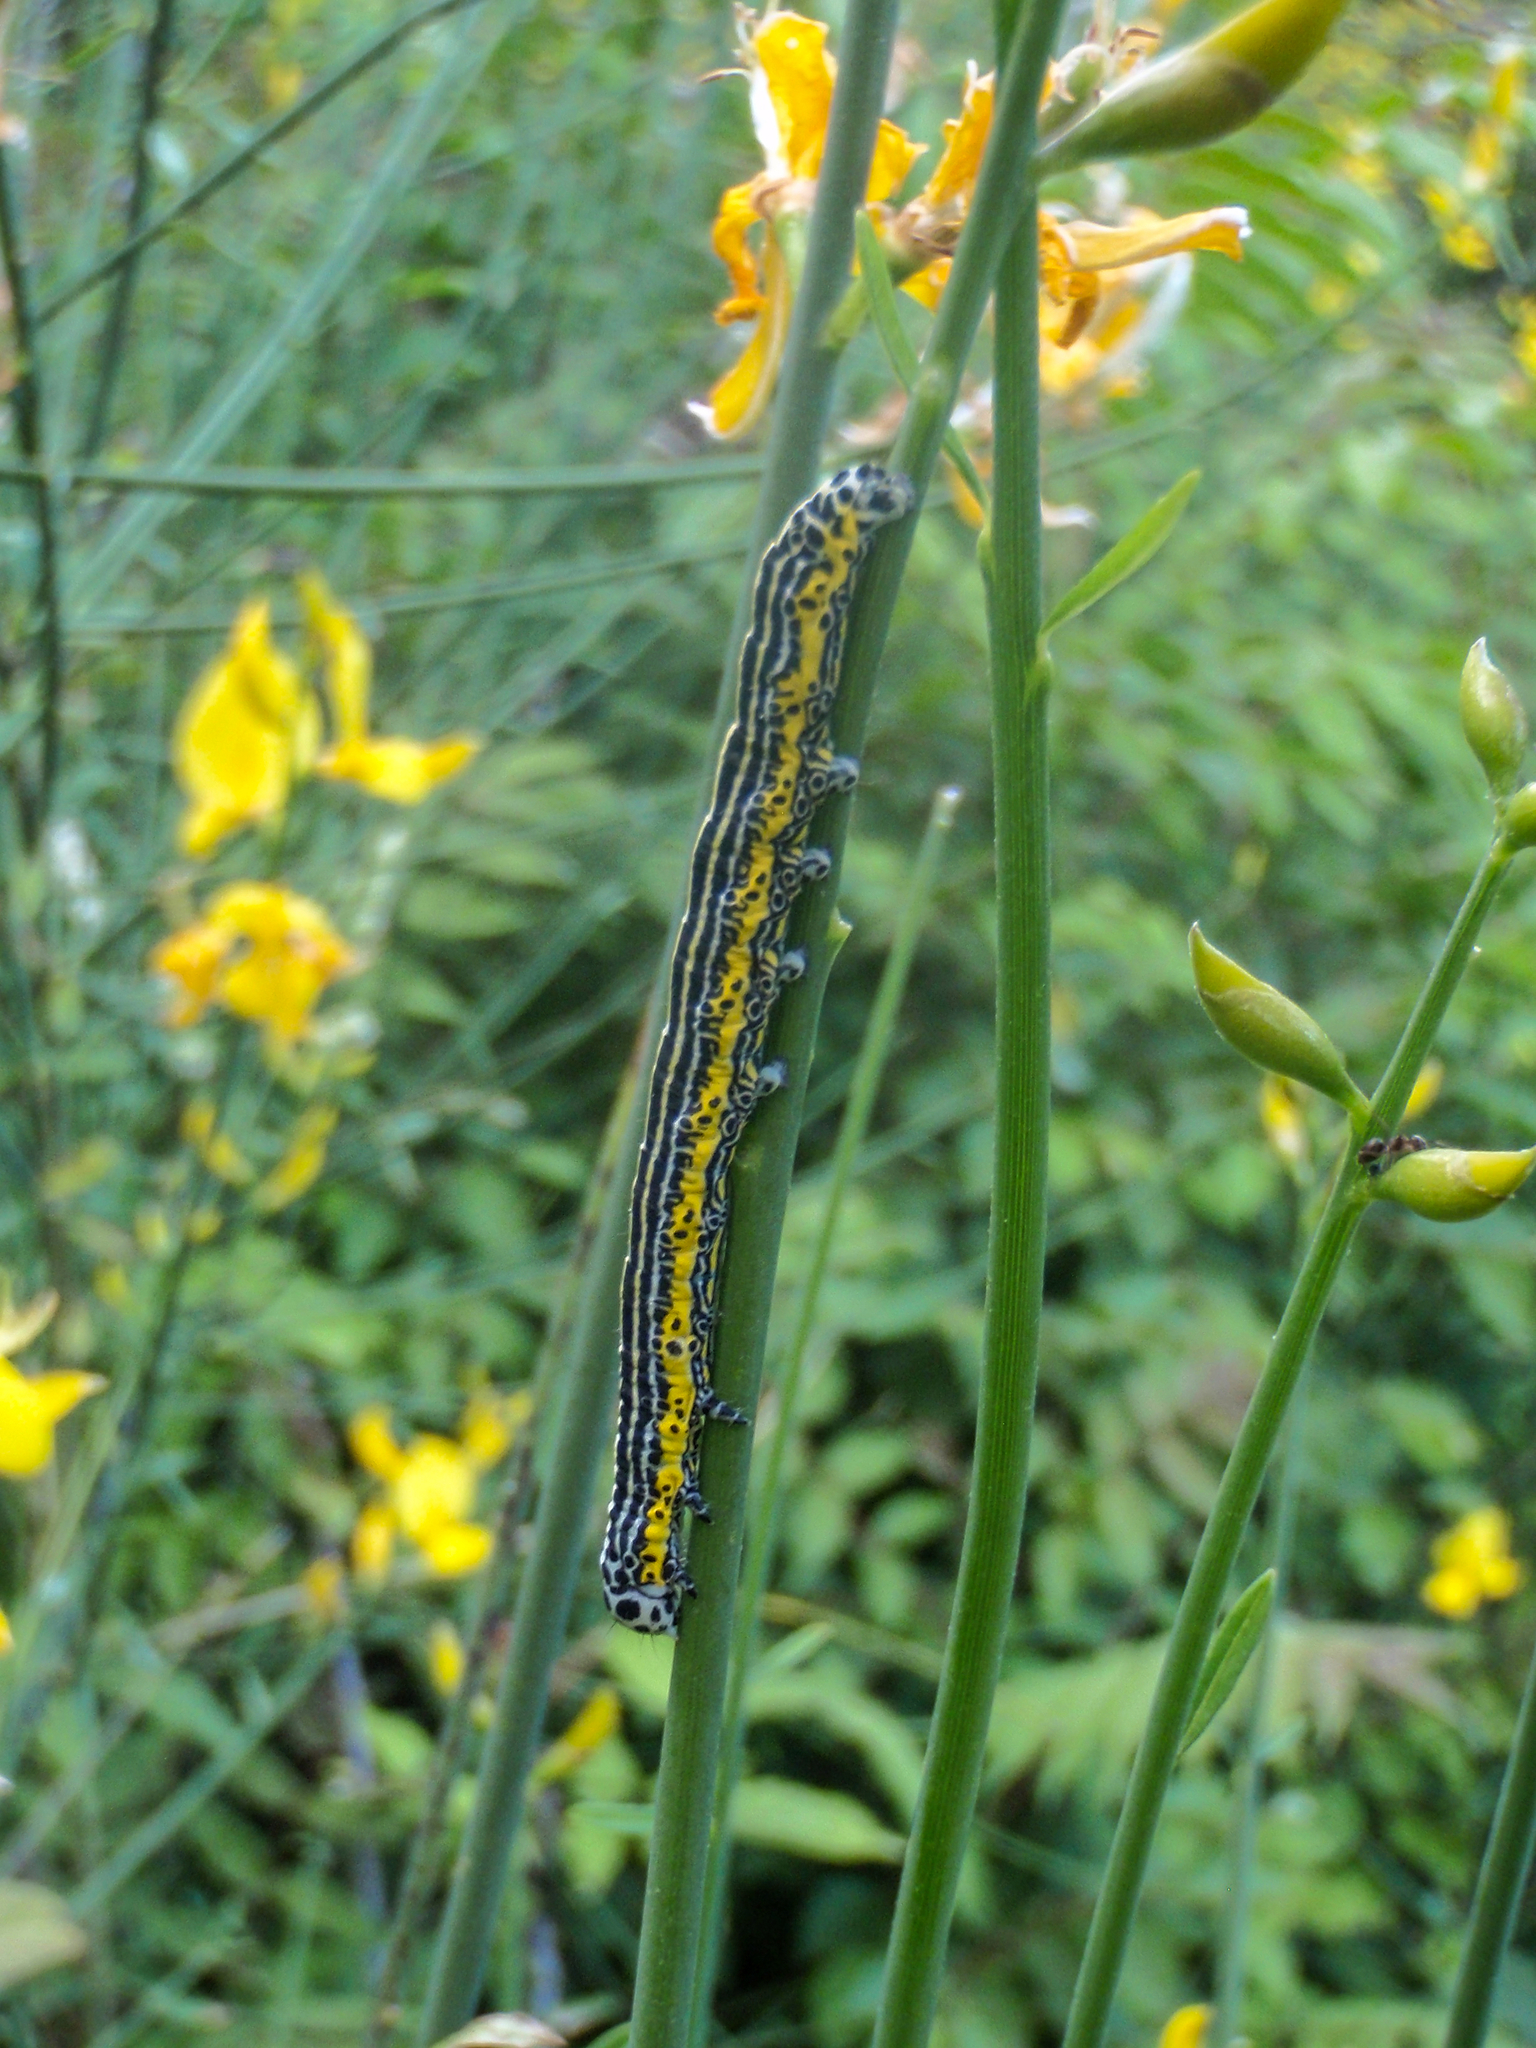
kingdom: Animalia
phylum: Arthropoda
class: Insecta
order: Lepidoptera
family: Erebidae
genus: Apopestes
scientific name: Apopestes spectrum
